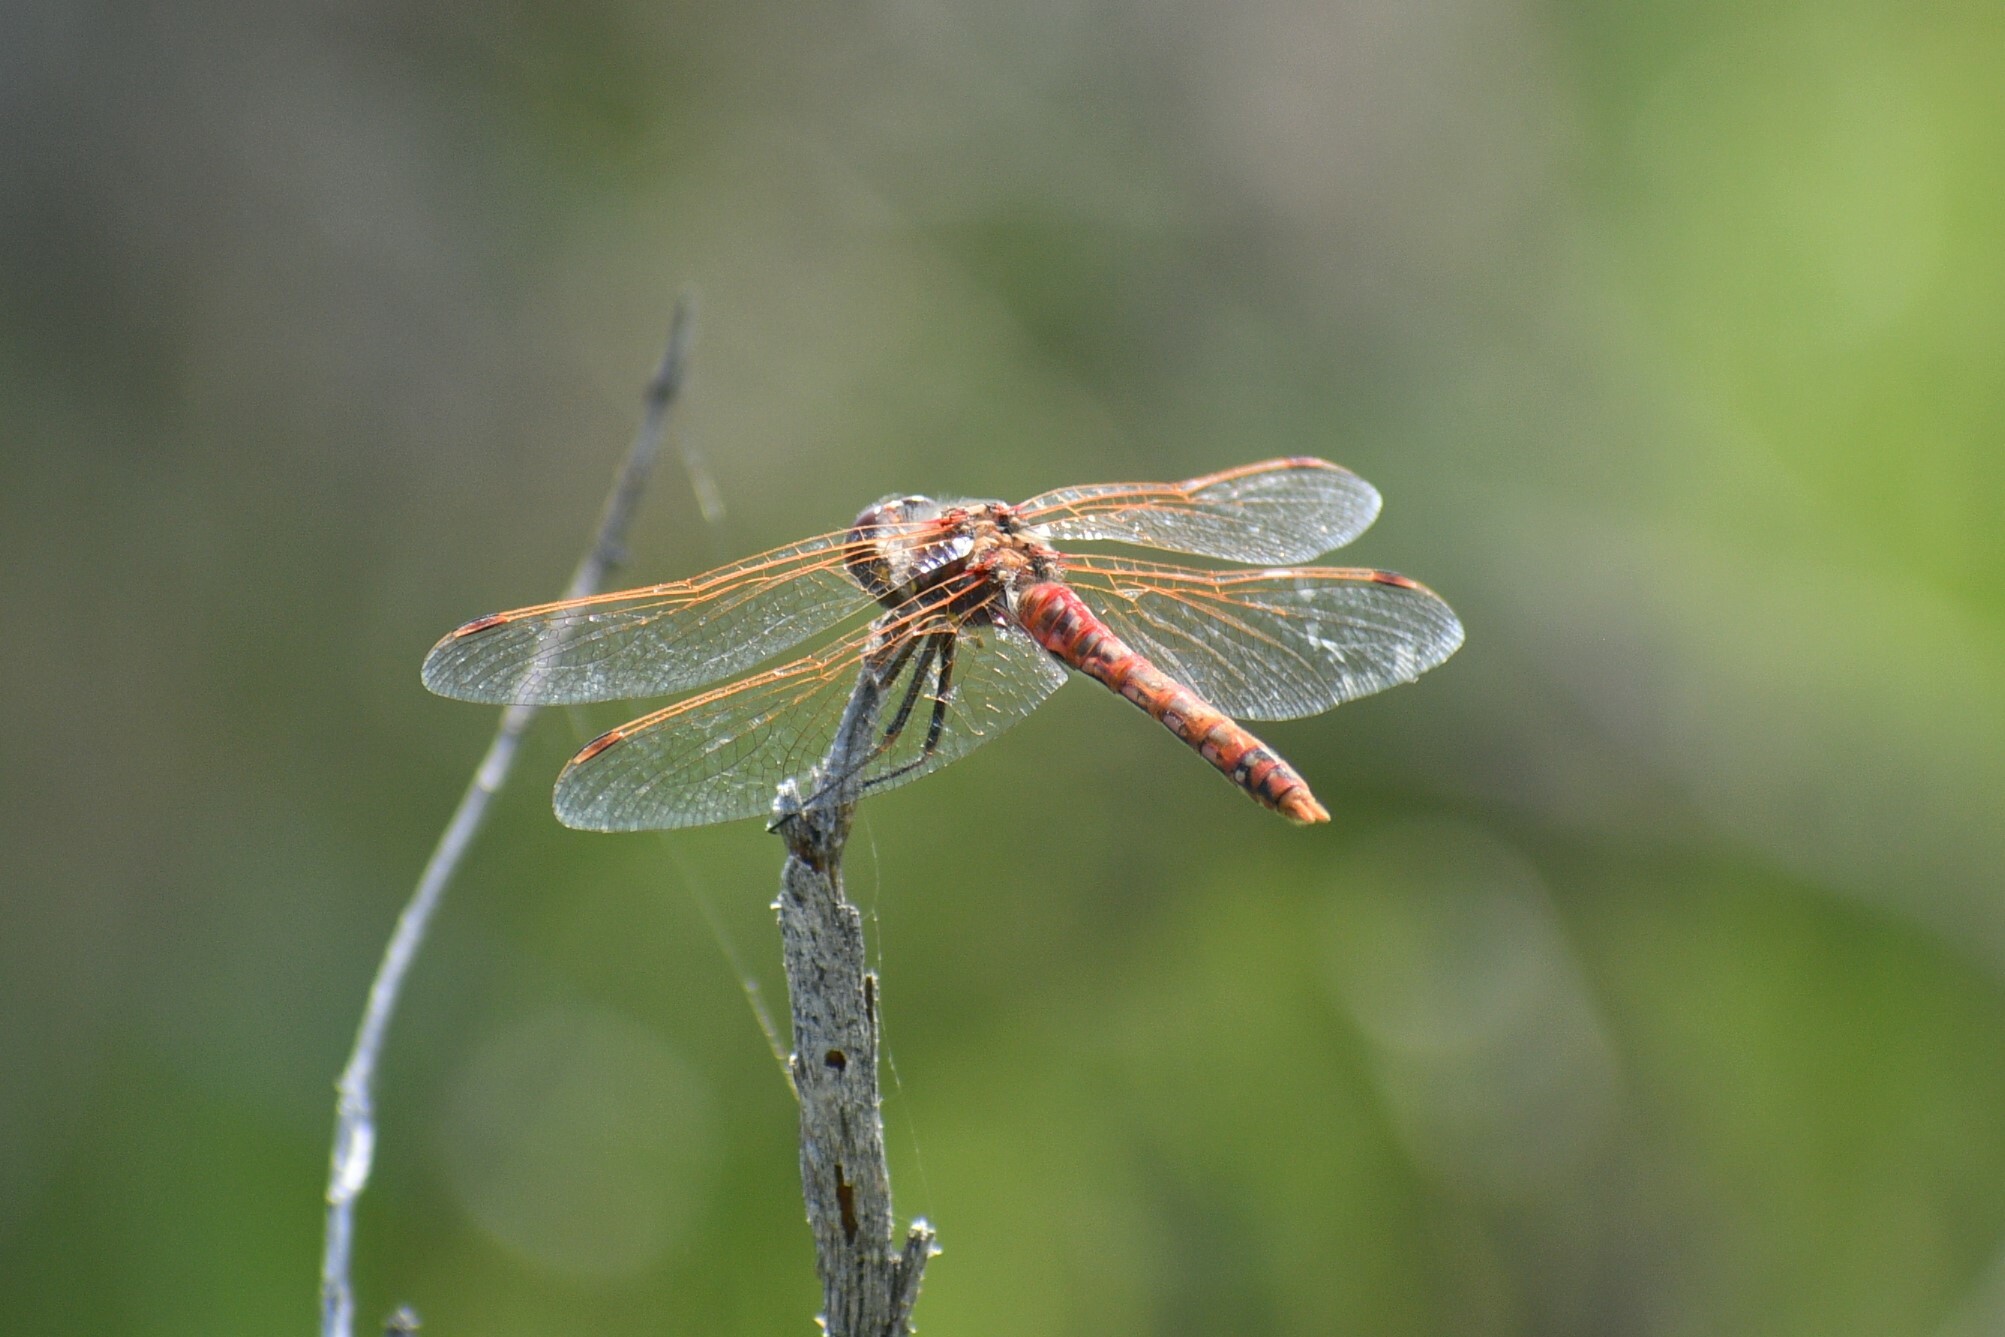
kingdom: Animalia
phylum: Arthropoda
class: Insecta
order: Odonata
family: Libellulidae
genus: Sympetrum
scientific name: Sympetrum corruptum
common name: Variegated meadowhawk
